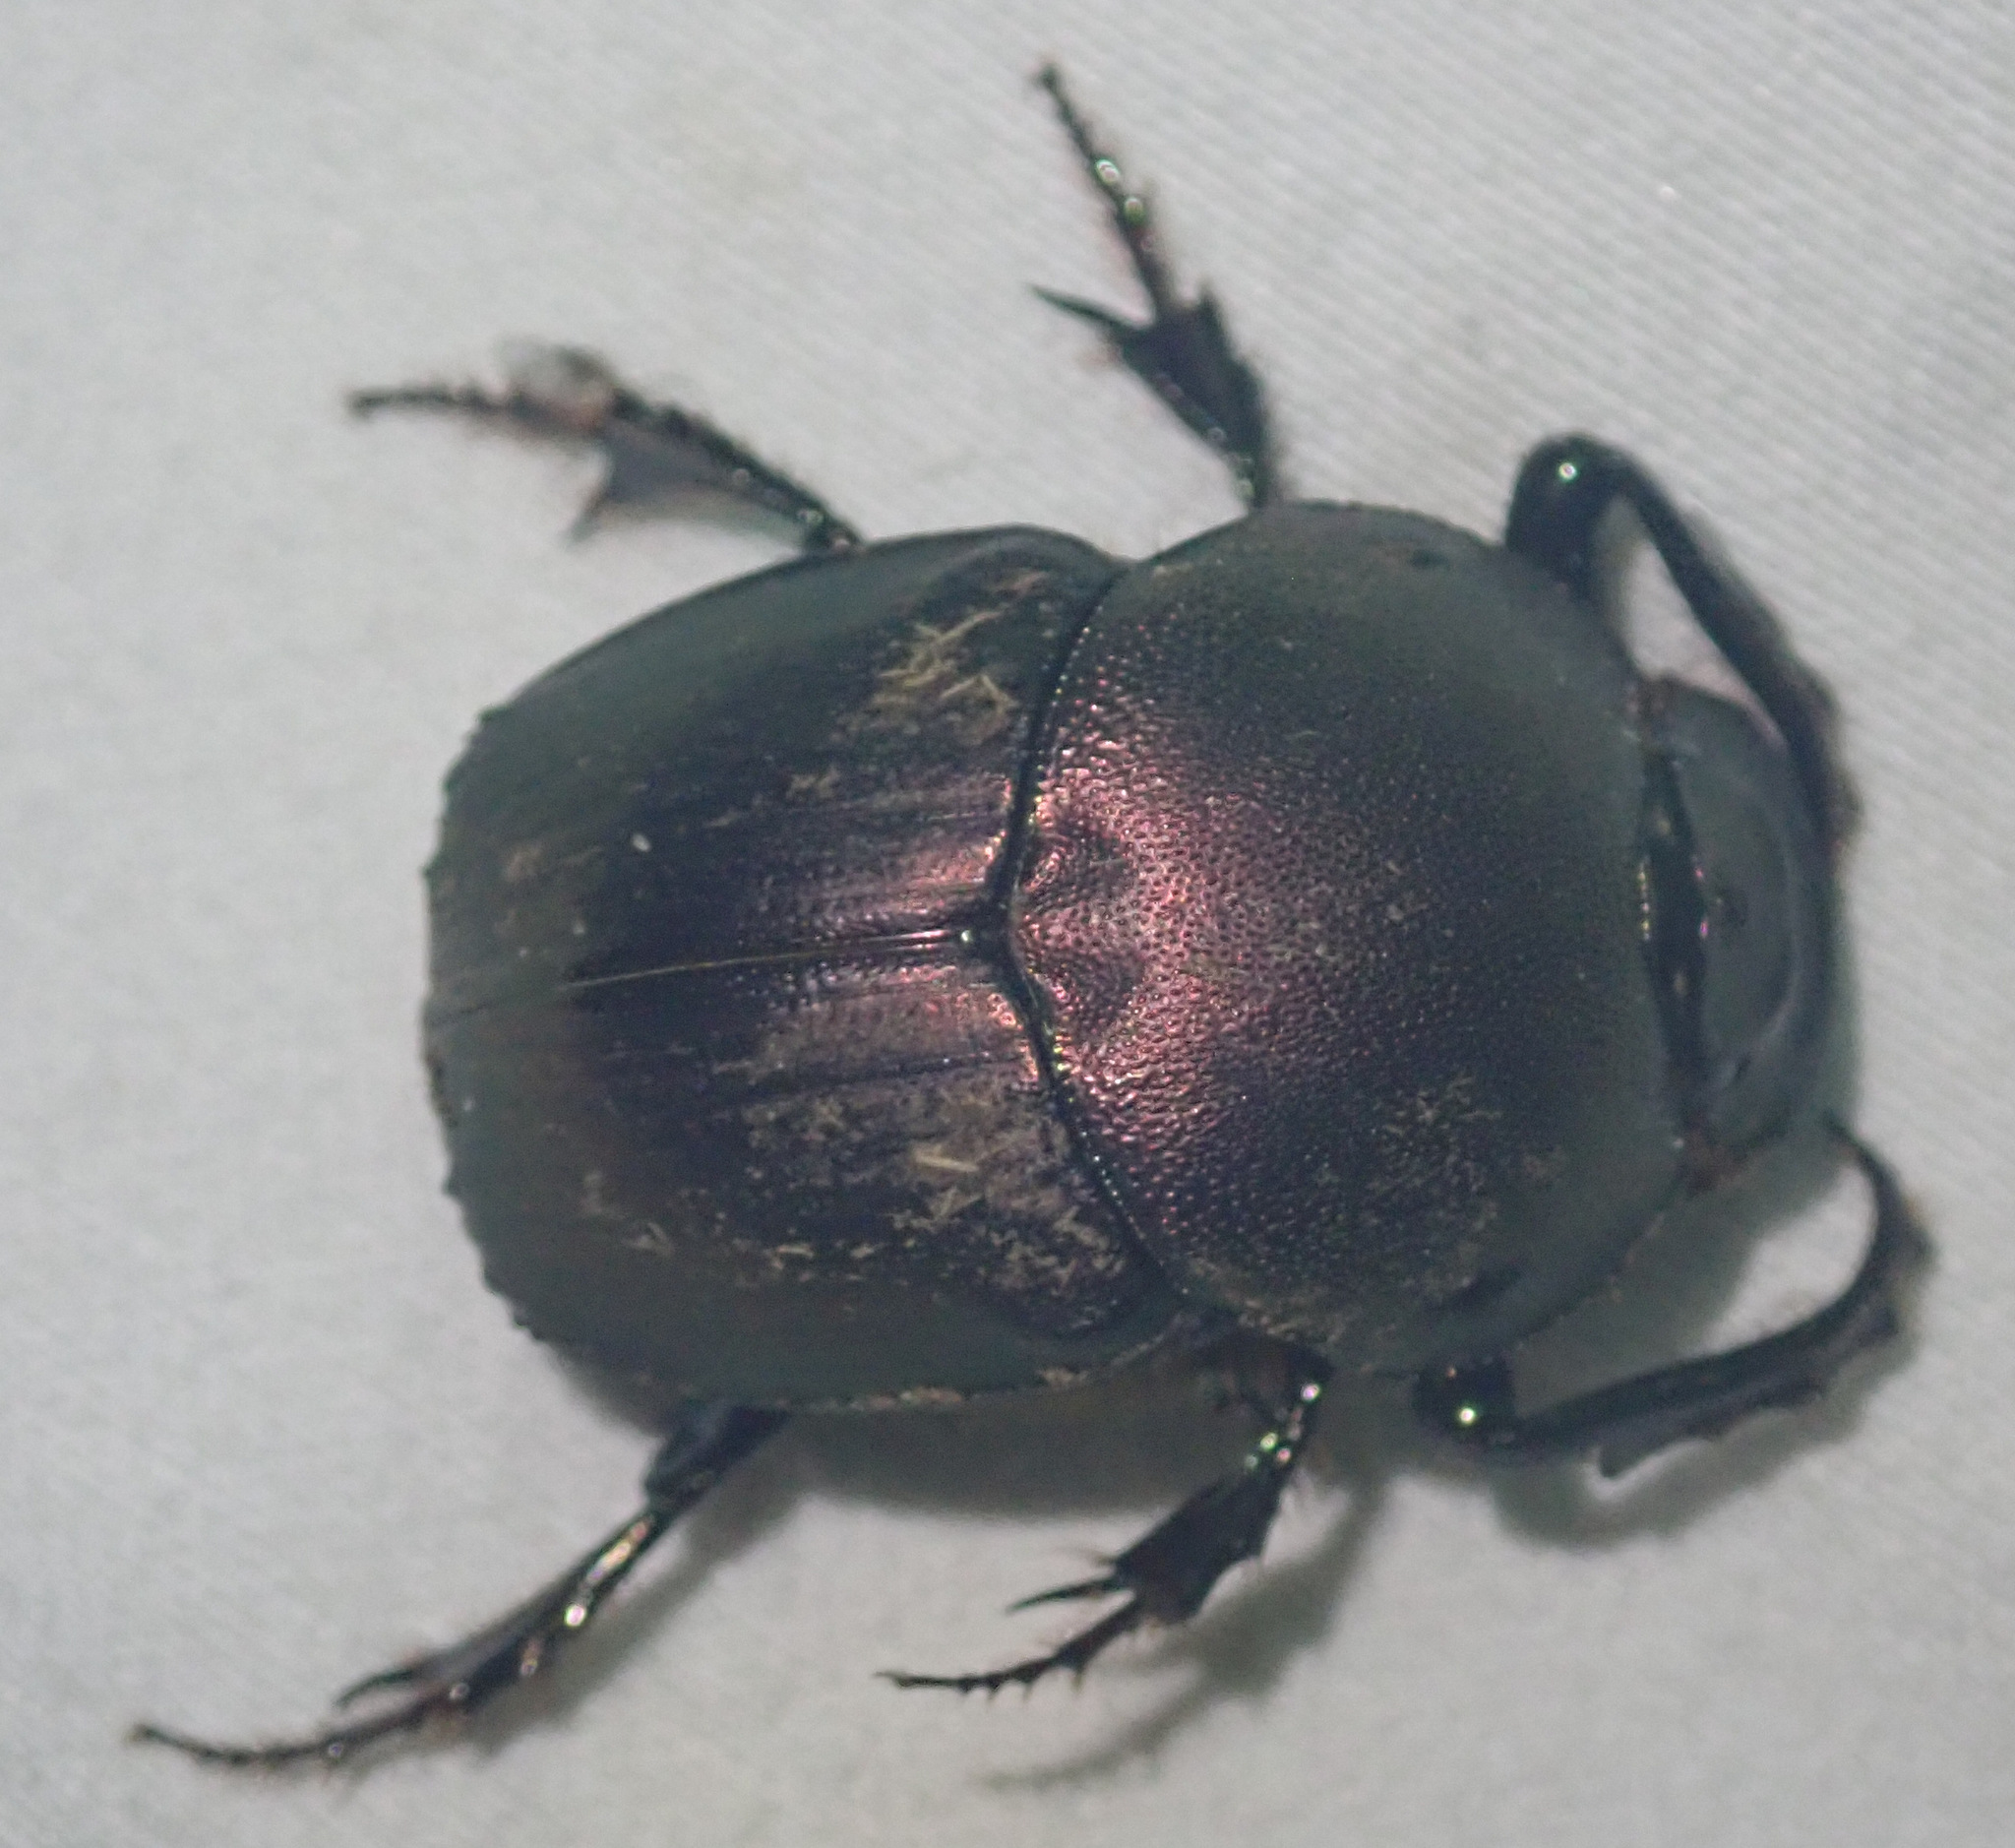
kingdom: Animalia
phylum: Arthropoda
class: Insecta
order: Coleoptera
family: Scarabaeidae
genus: Onitis
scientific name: Onitis westermanni
